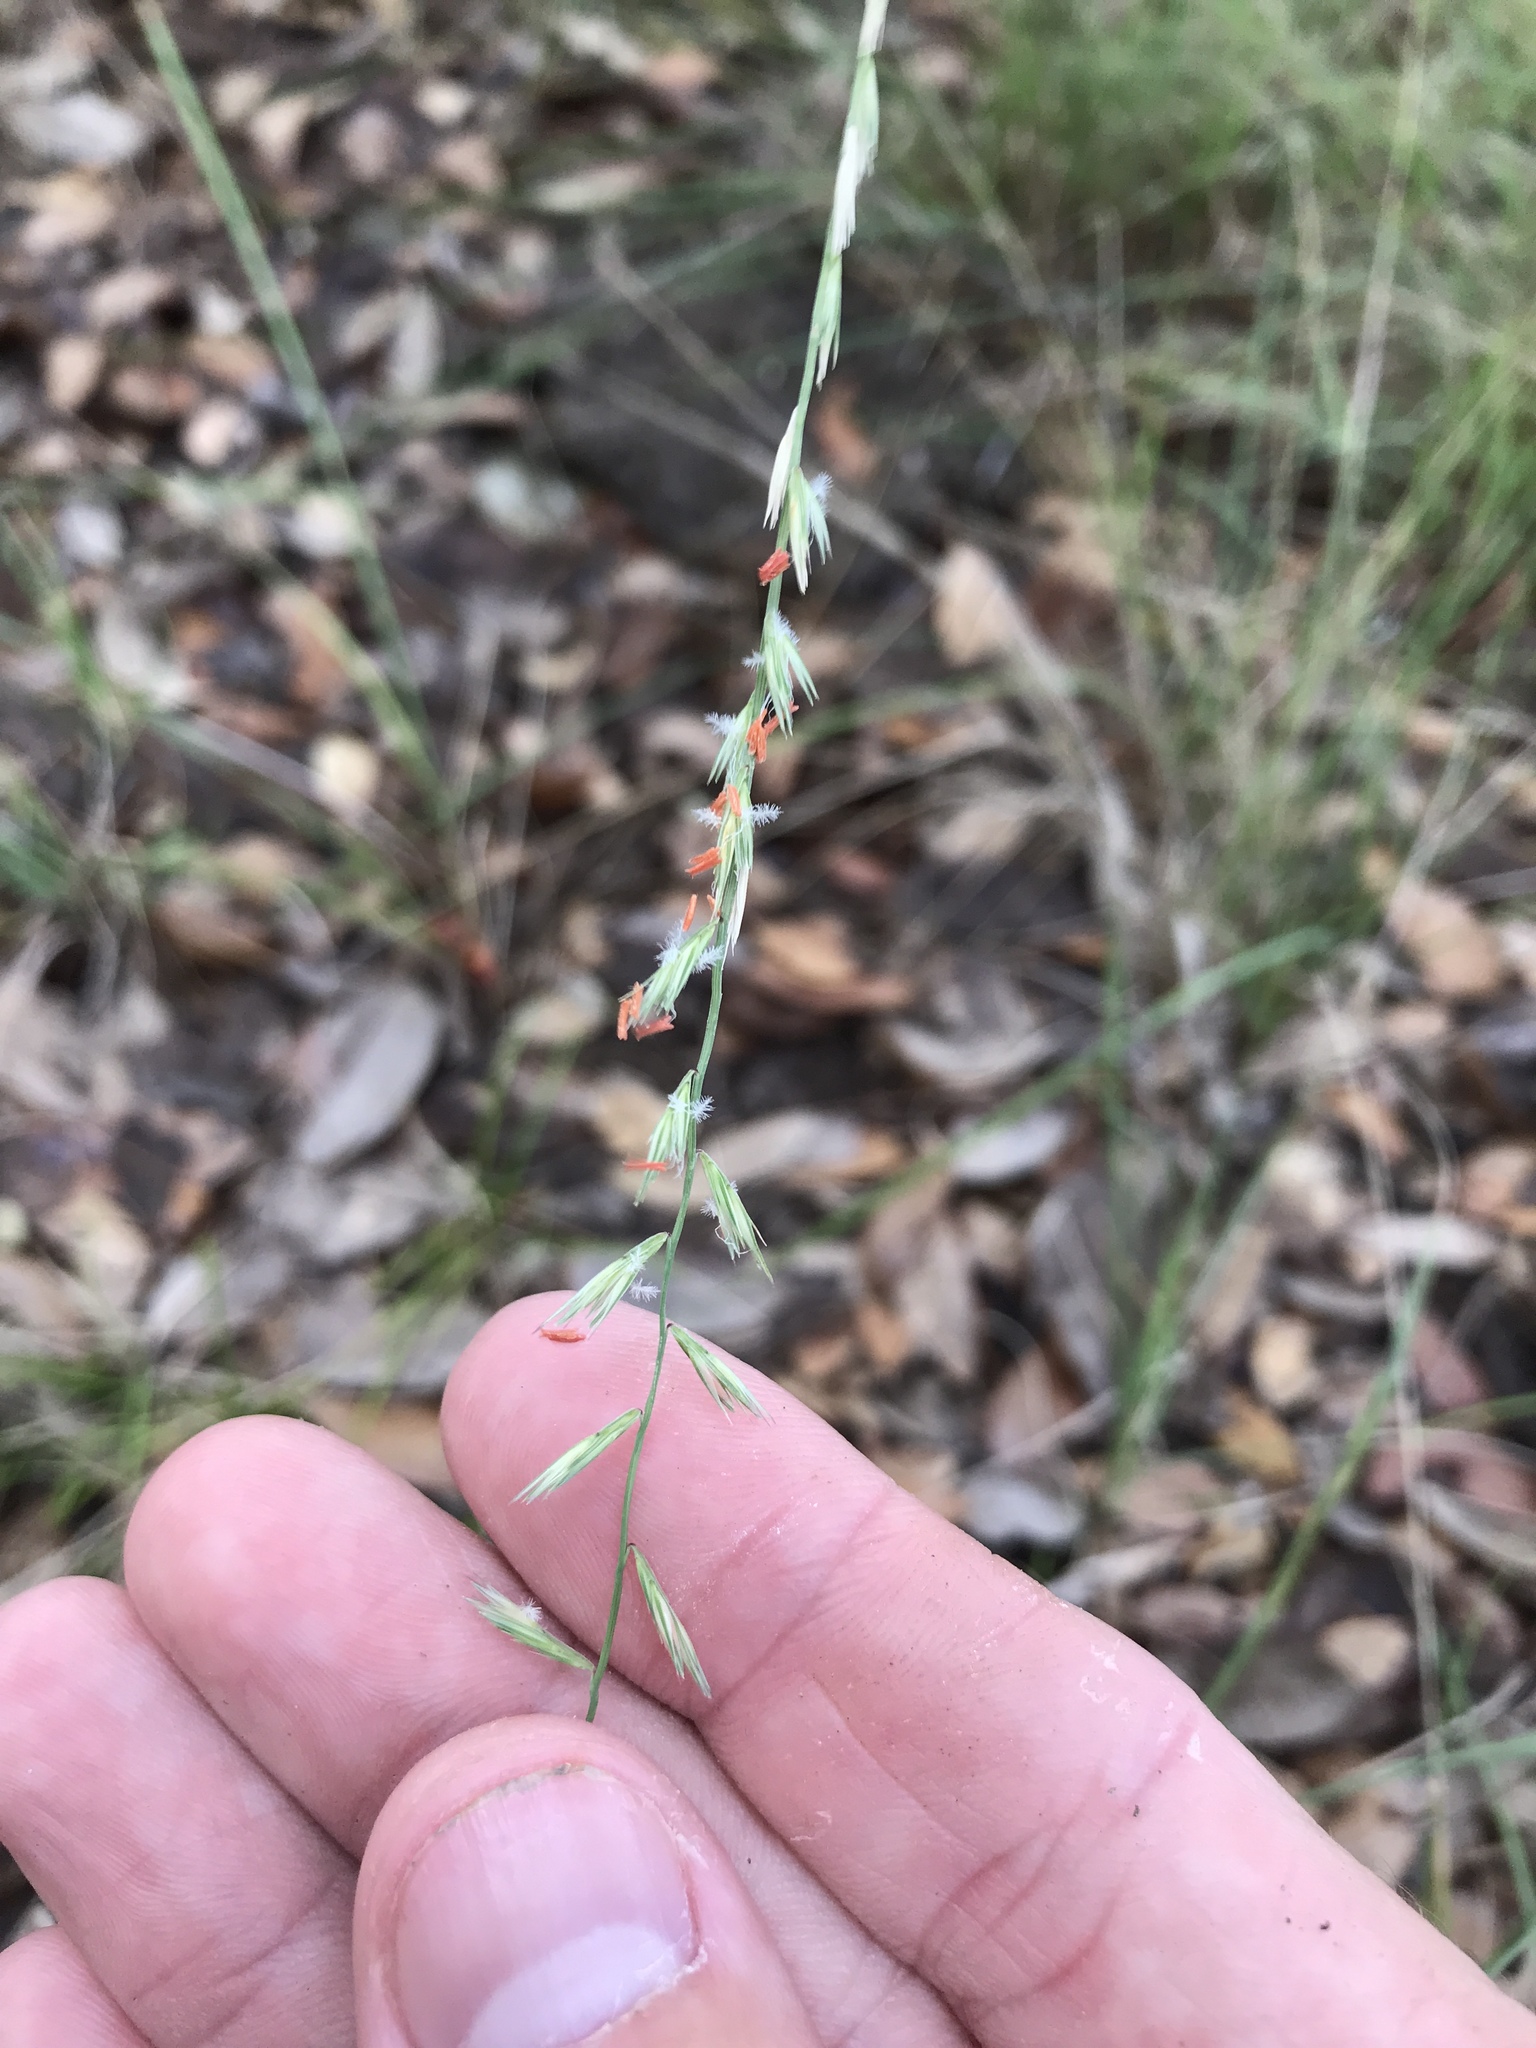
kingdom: Plantae
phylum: Tracheophyta
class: Liliopsida
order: Poales
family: Poaceae
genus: Bouteloua
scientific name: Bouteloua curtipendula
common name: Side-oats grama
